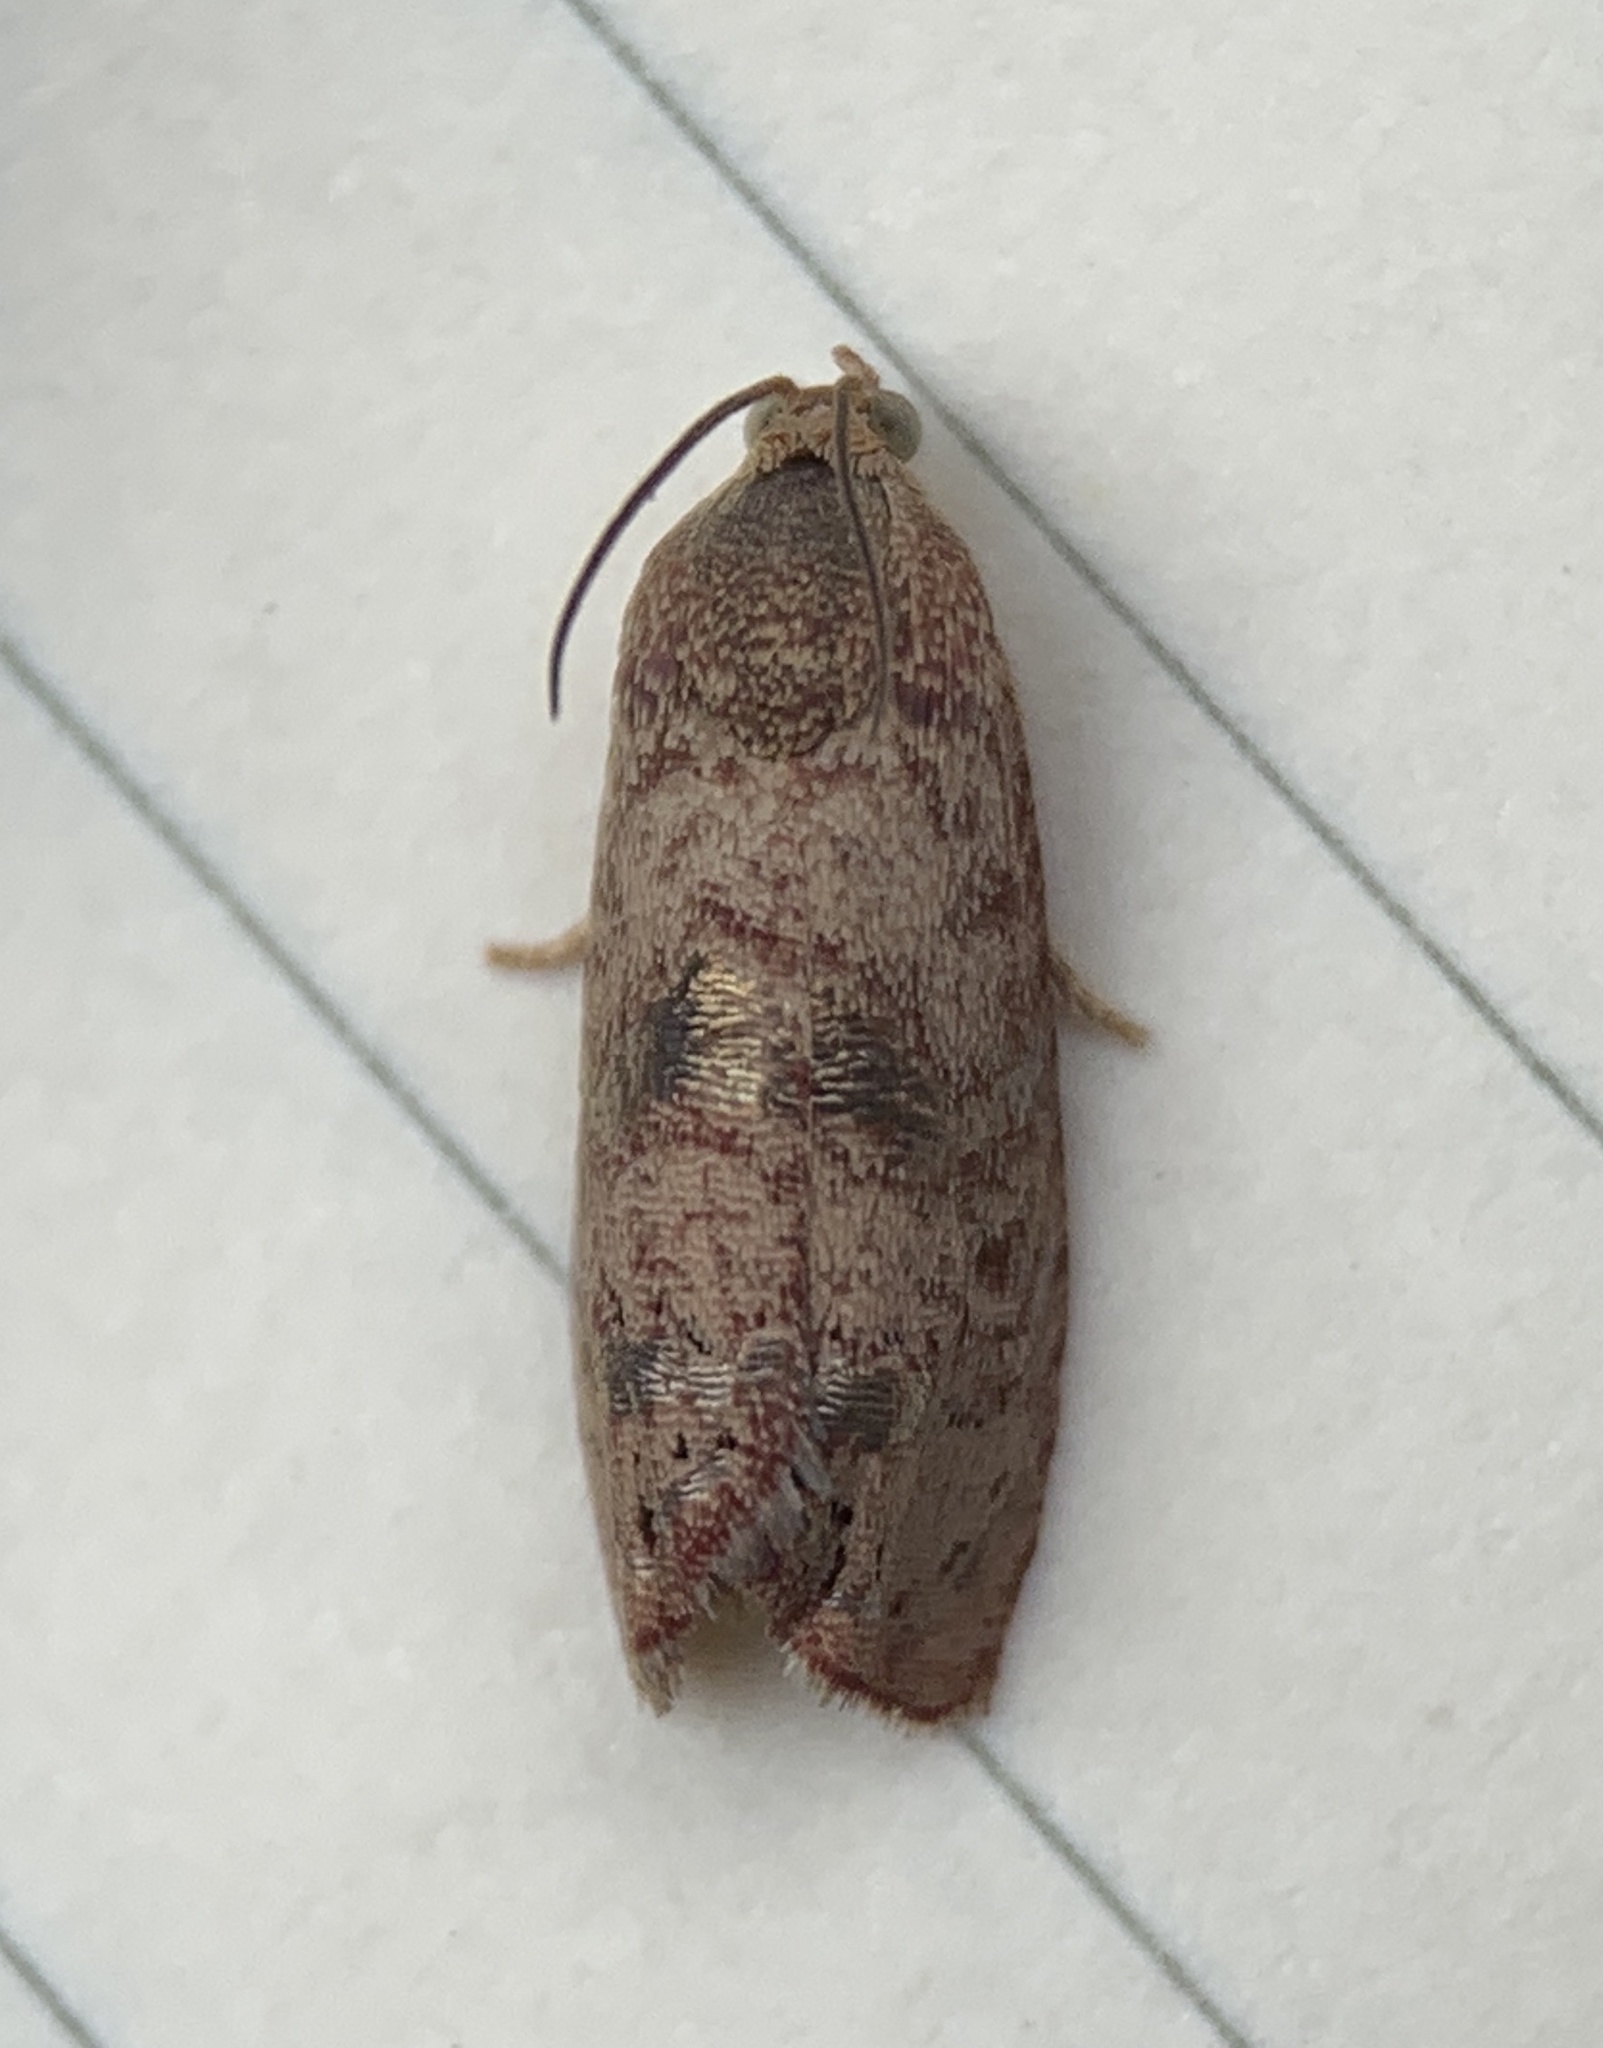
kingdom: Animalia
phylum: Arthropoda
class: Insecta
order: Lepidoptera
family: Tortricidae
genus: Cydia
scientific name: Cydia latiferreana
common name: Filbertworm moth
